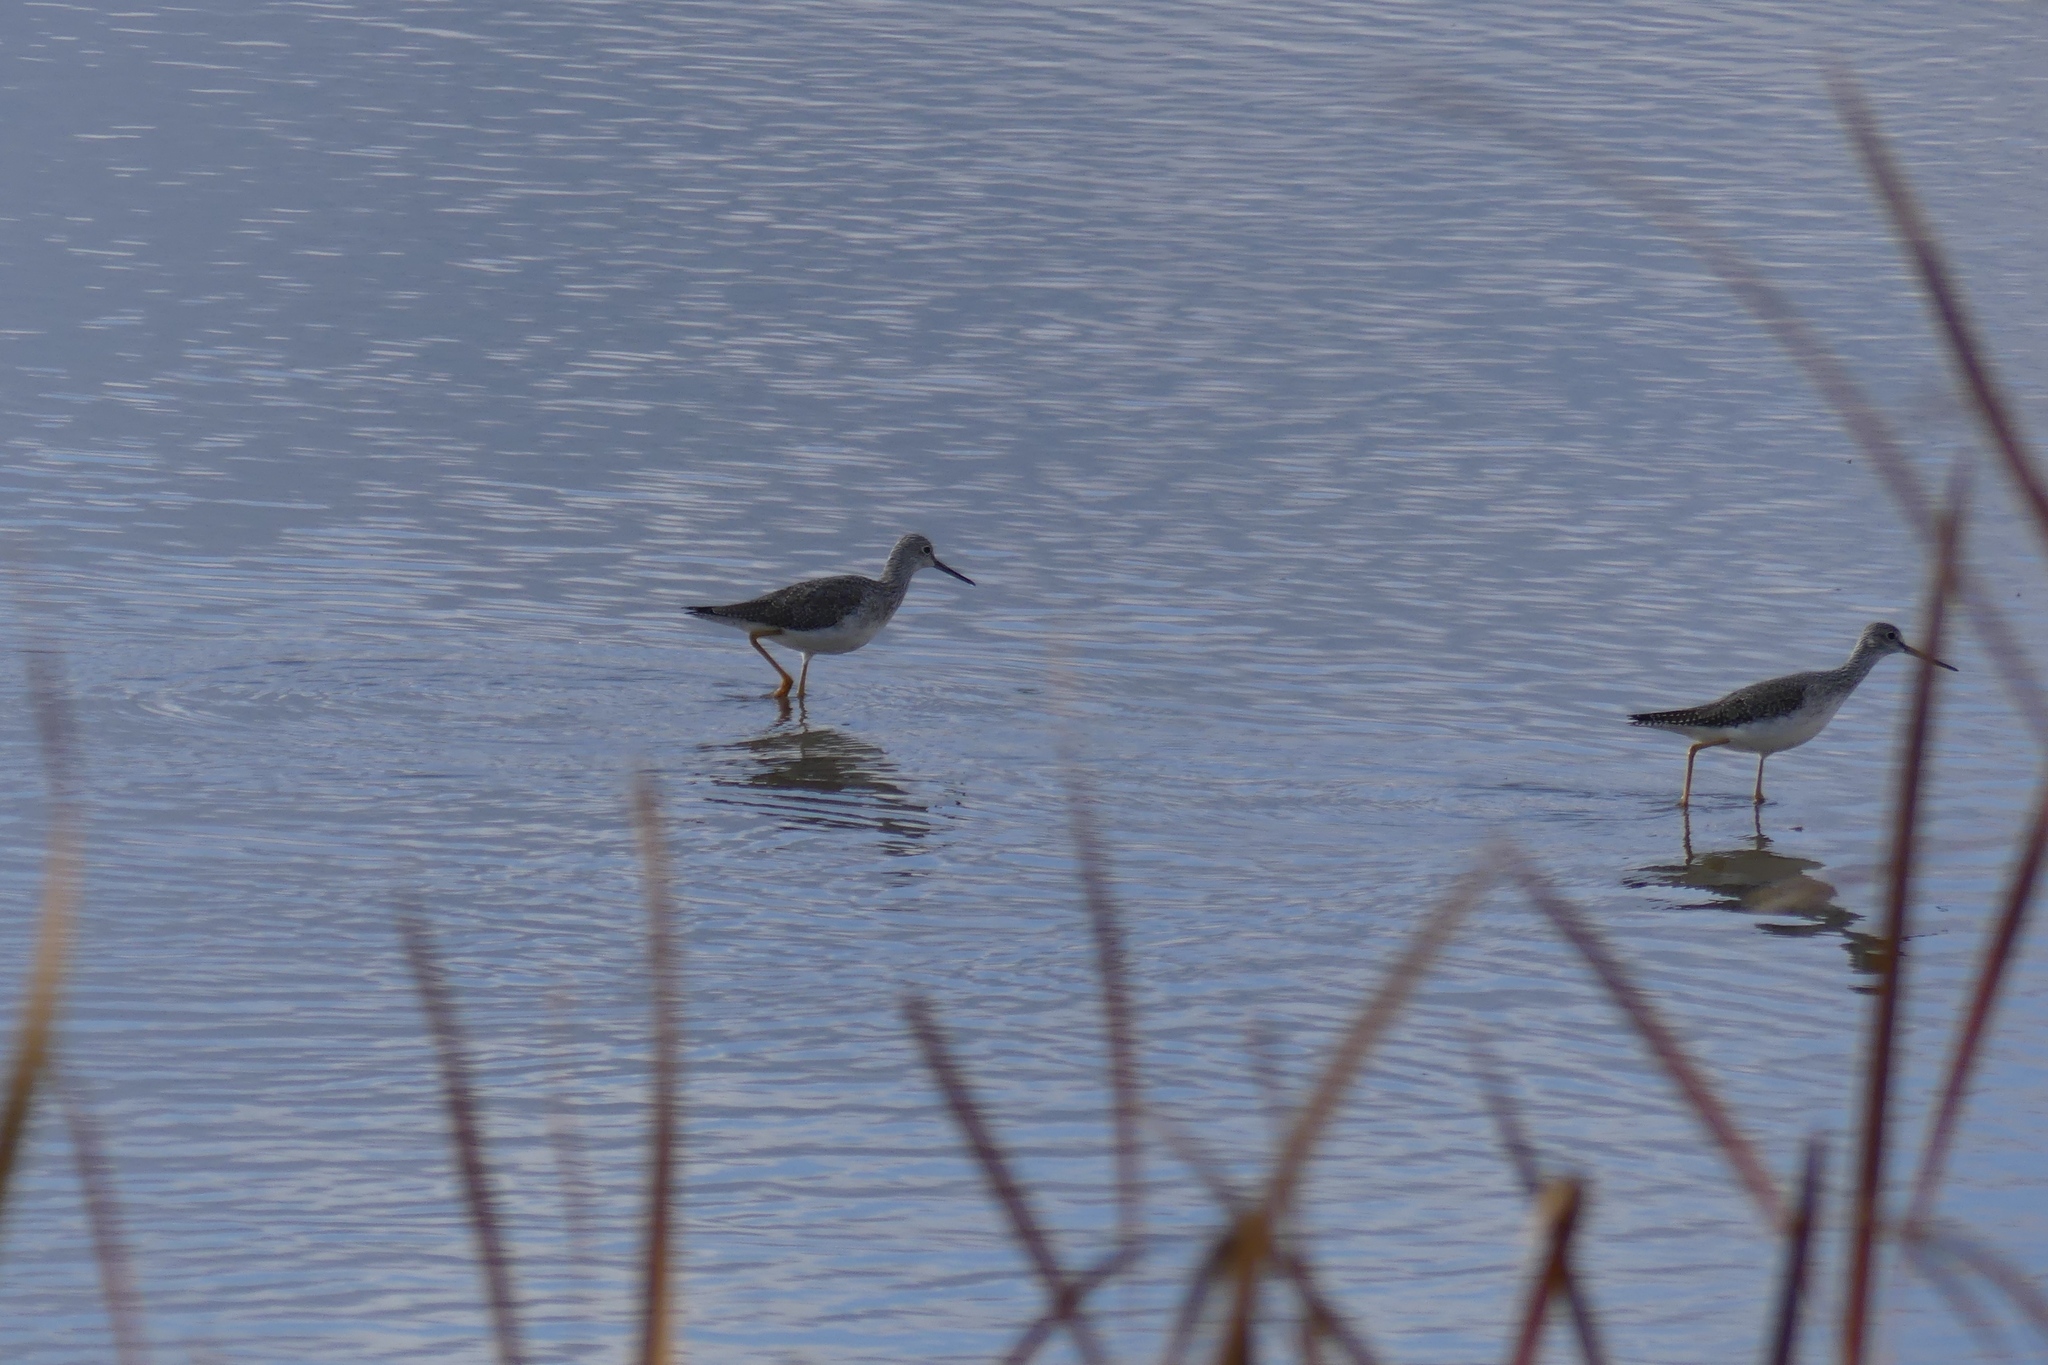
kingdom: Animalia
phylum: Chordata
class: Aves
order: Charadriiformes
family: Scolopacidae
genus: Tringa
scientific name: Tringa melanoleuca
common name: Greater yellowlegs
